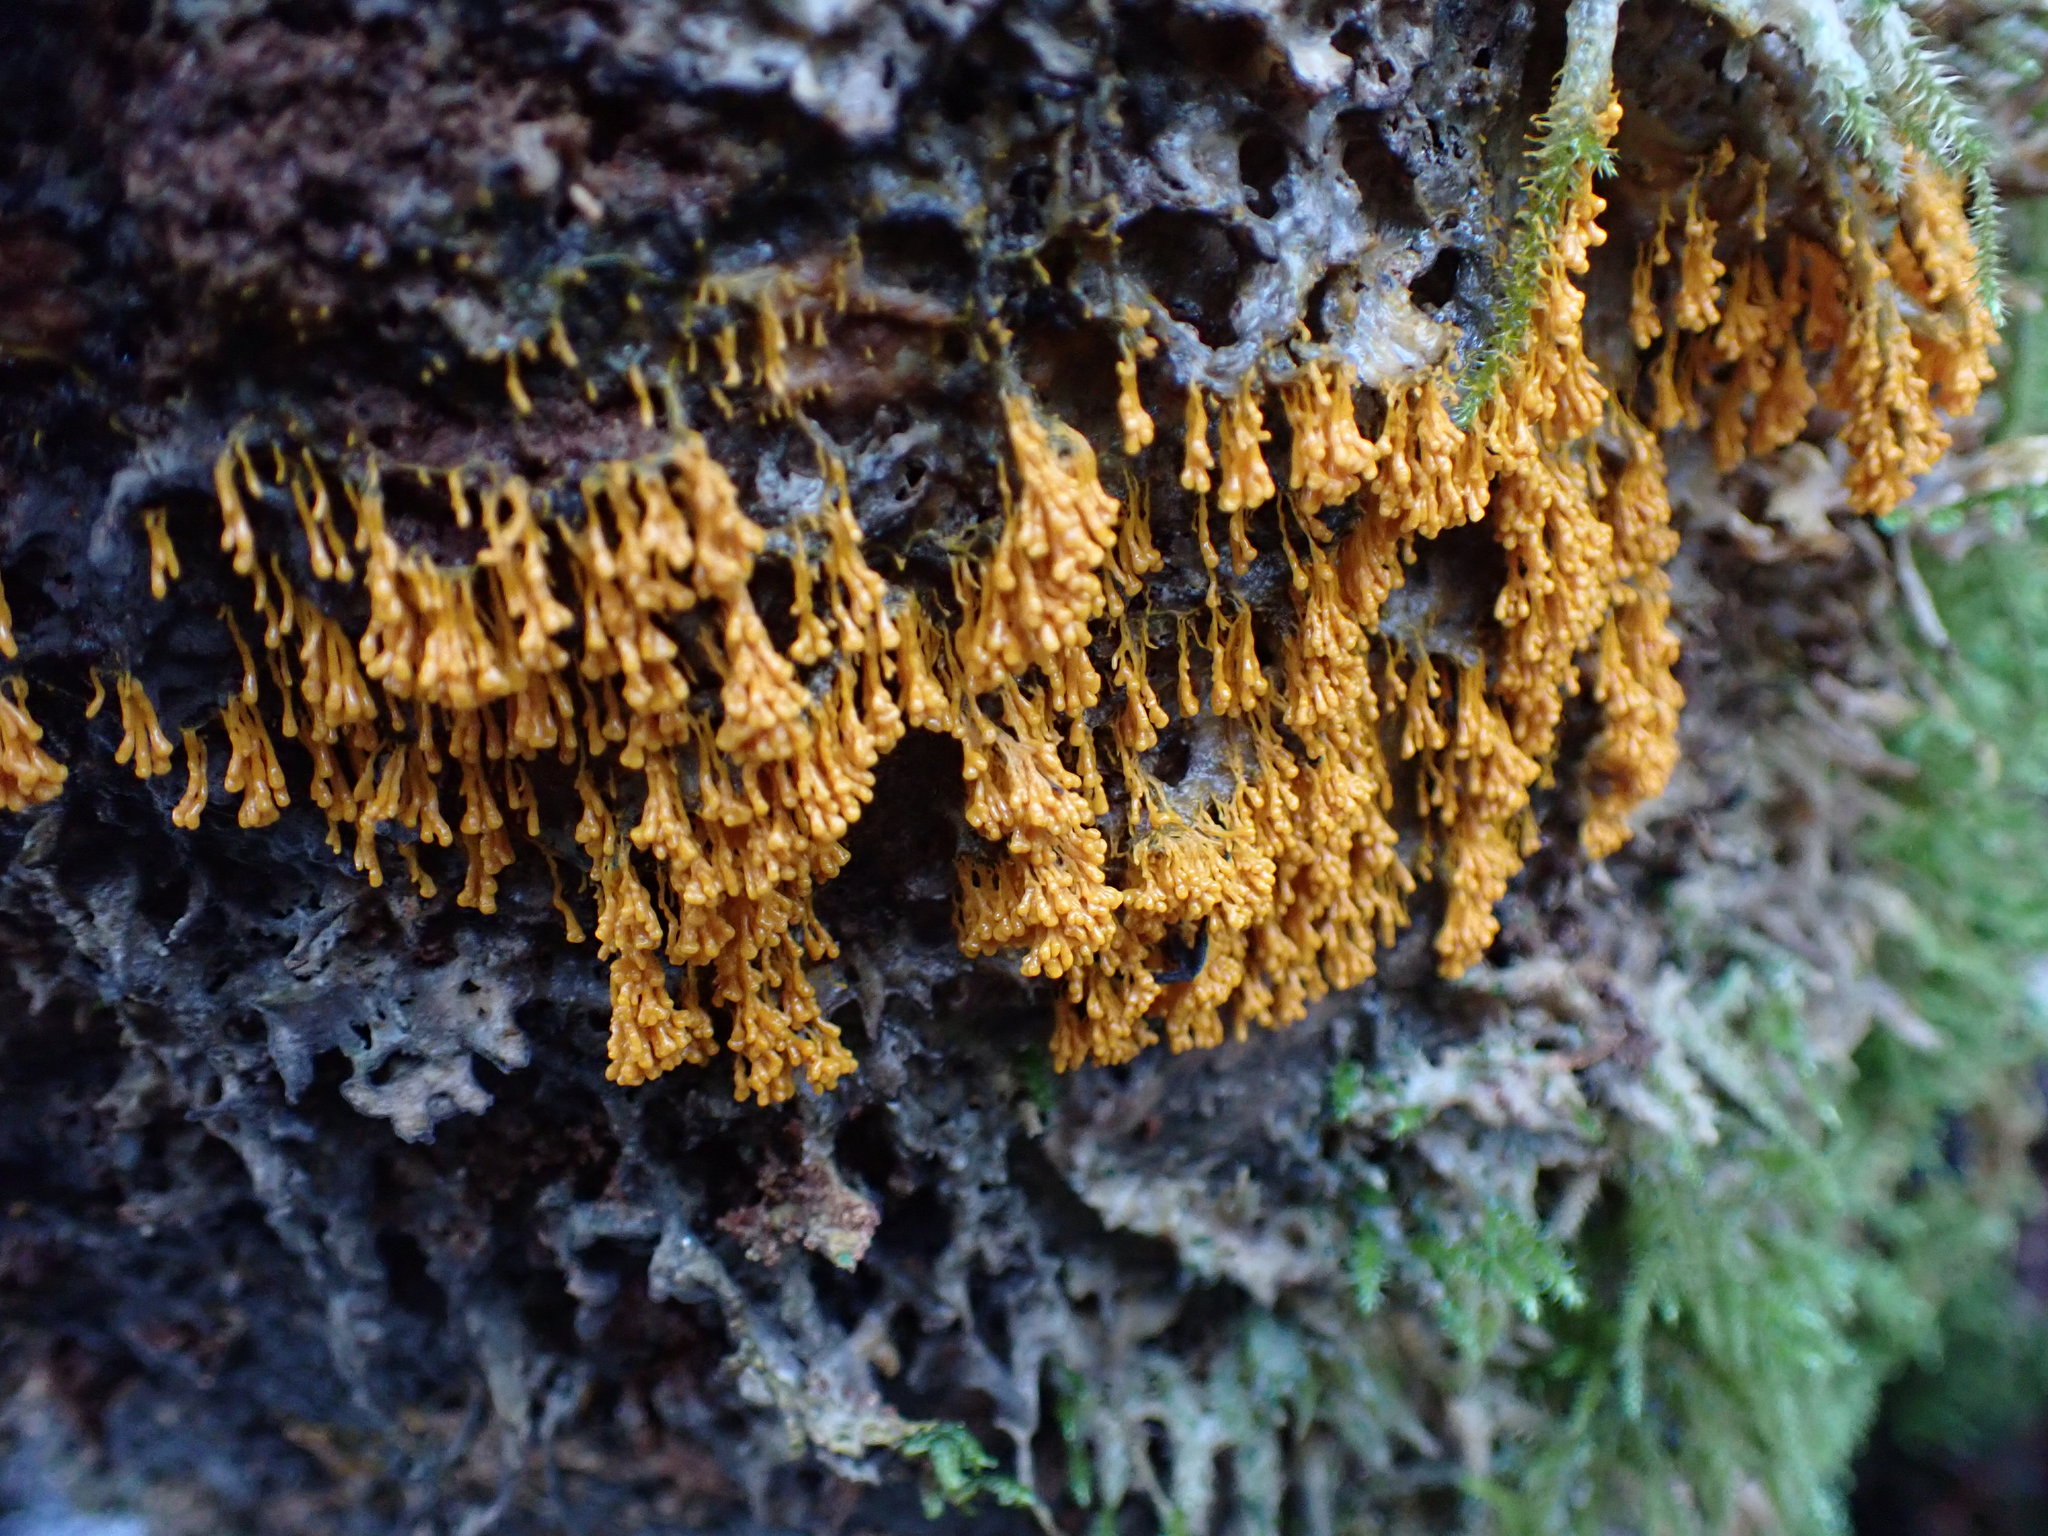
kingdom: Protozoa
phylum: Mycetozoa
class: Myxomycetes
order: Physarales
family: Physaraceae
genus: Badhamia
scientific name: Badhamia utricularis
